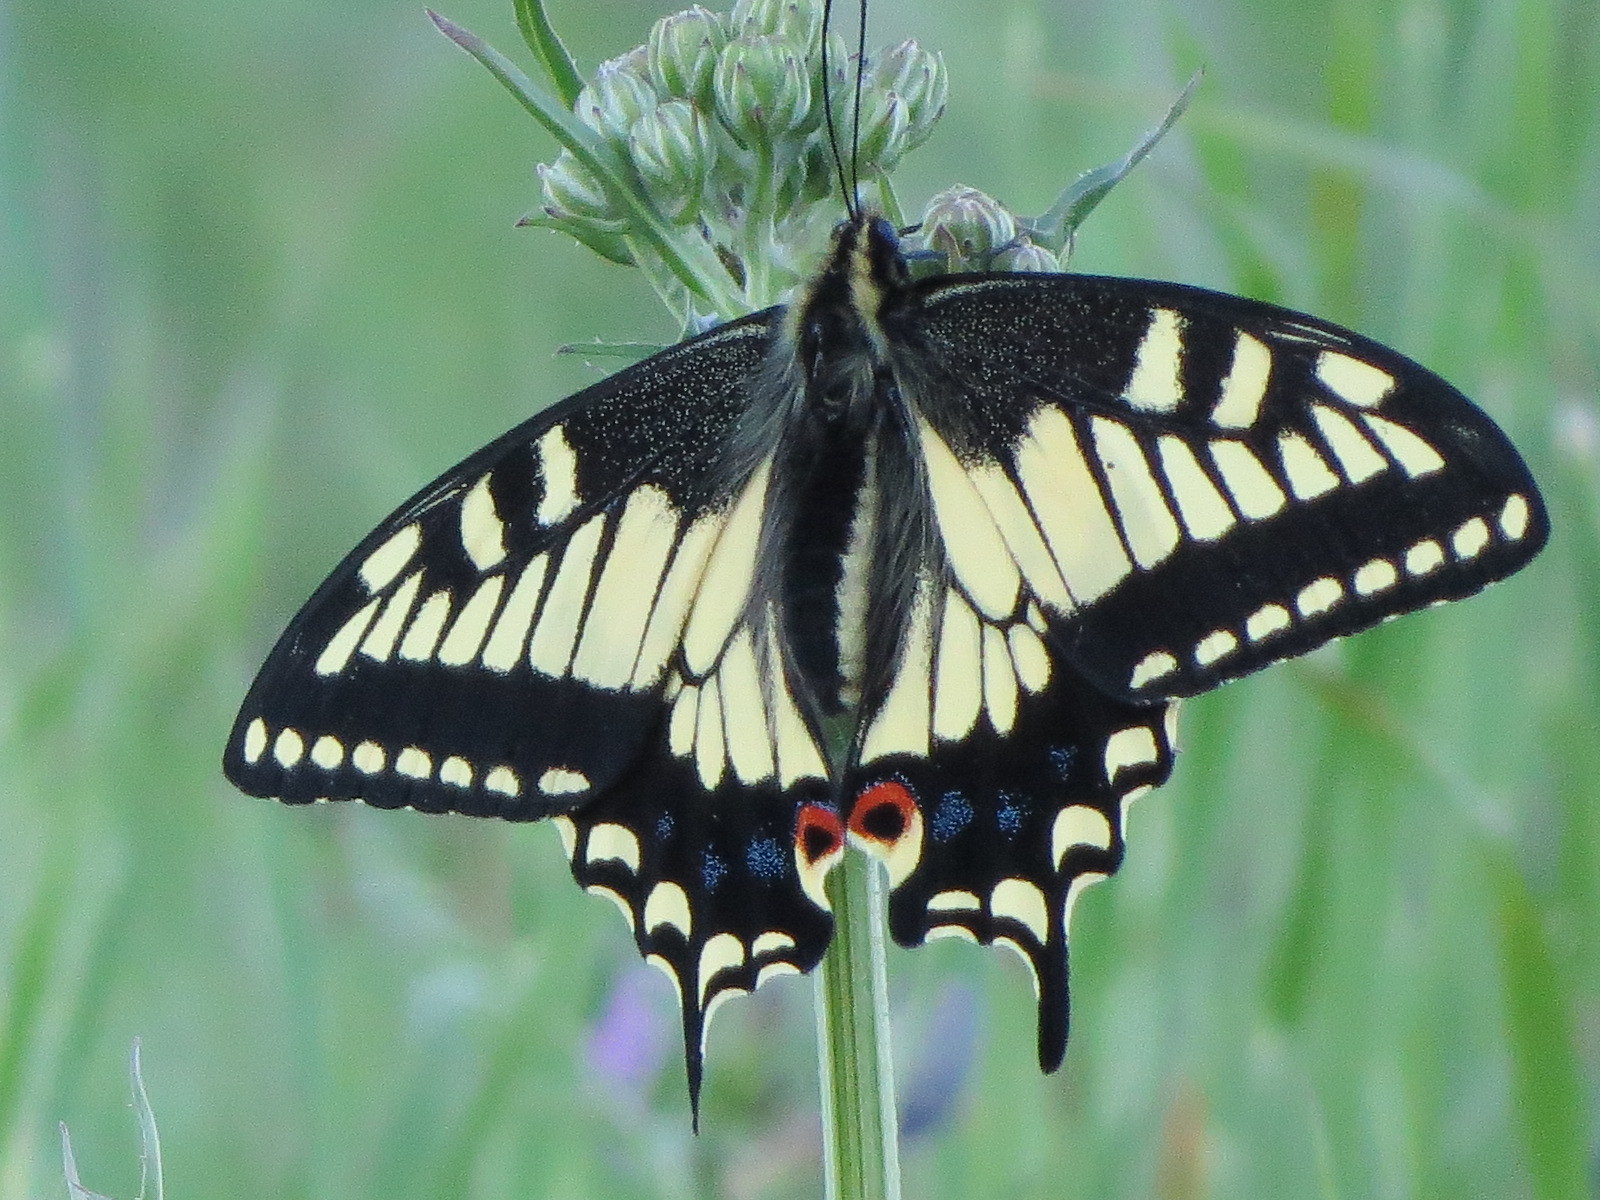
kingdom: Animalia
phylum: Arthropoda
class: Insecta
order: Lepidoptera
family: Papilionidae
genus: Papilio
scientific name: Papilio zelicaon
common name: Anise swallowtail
